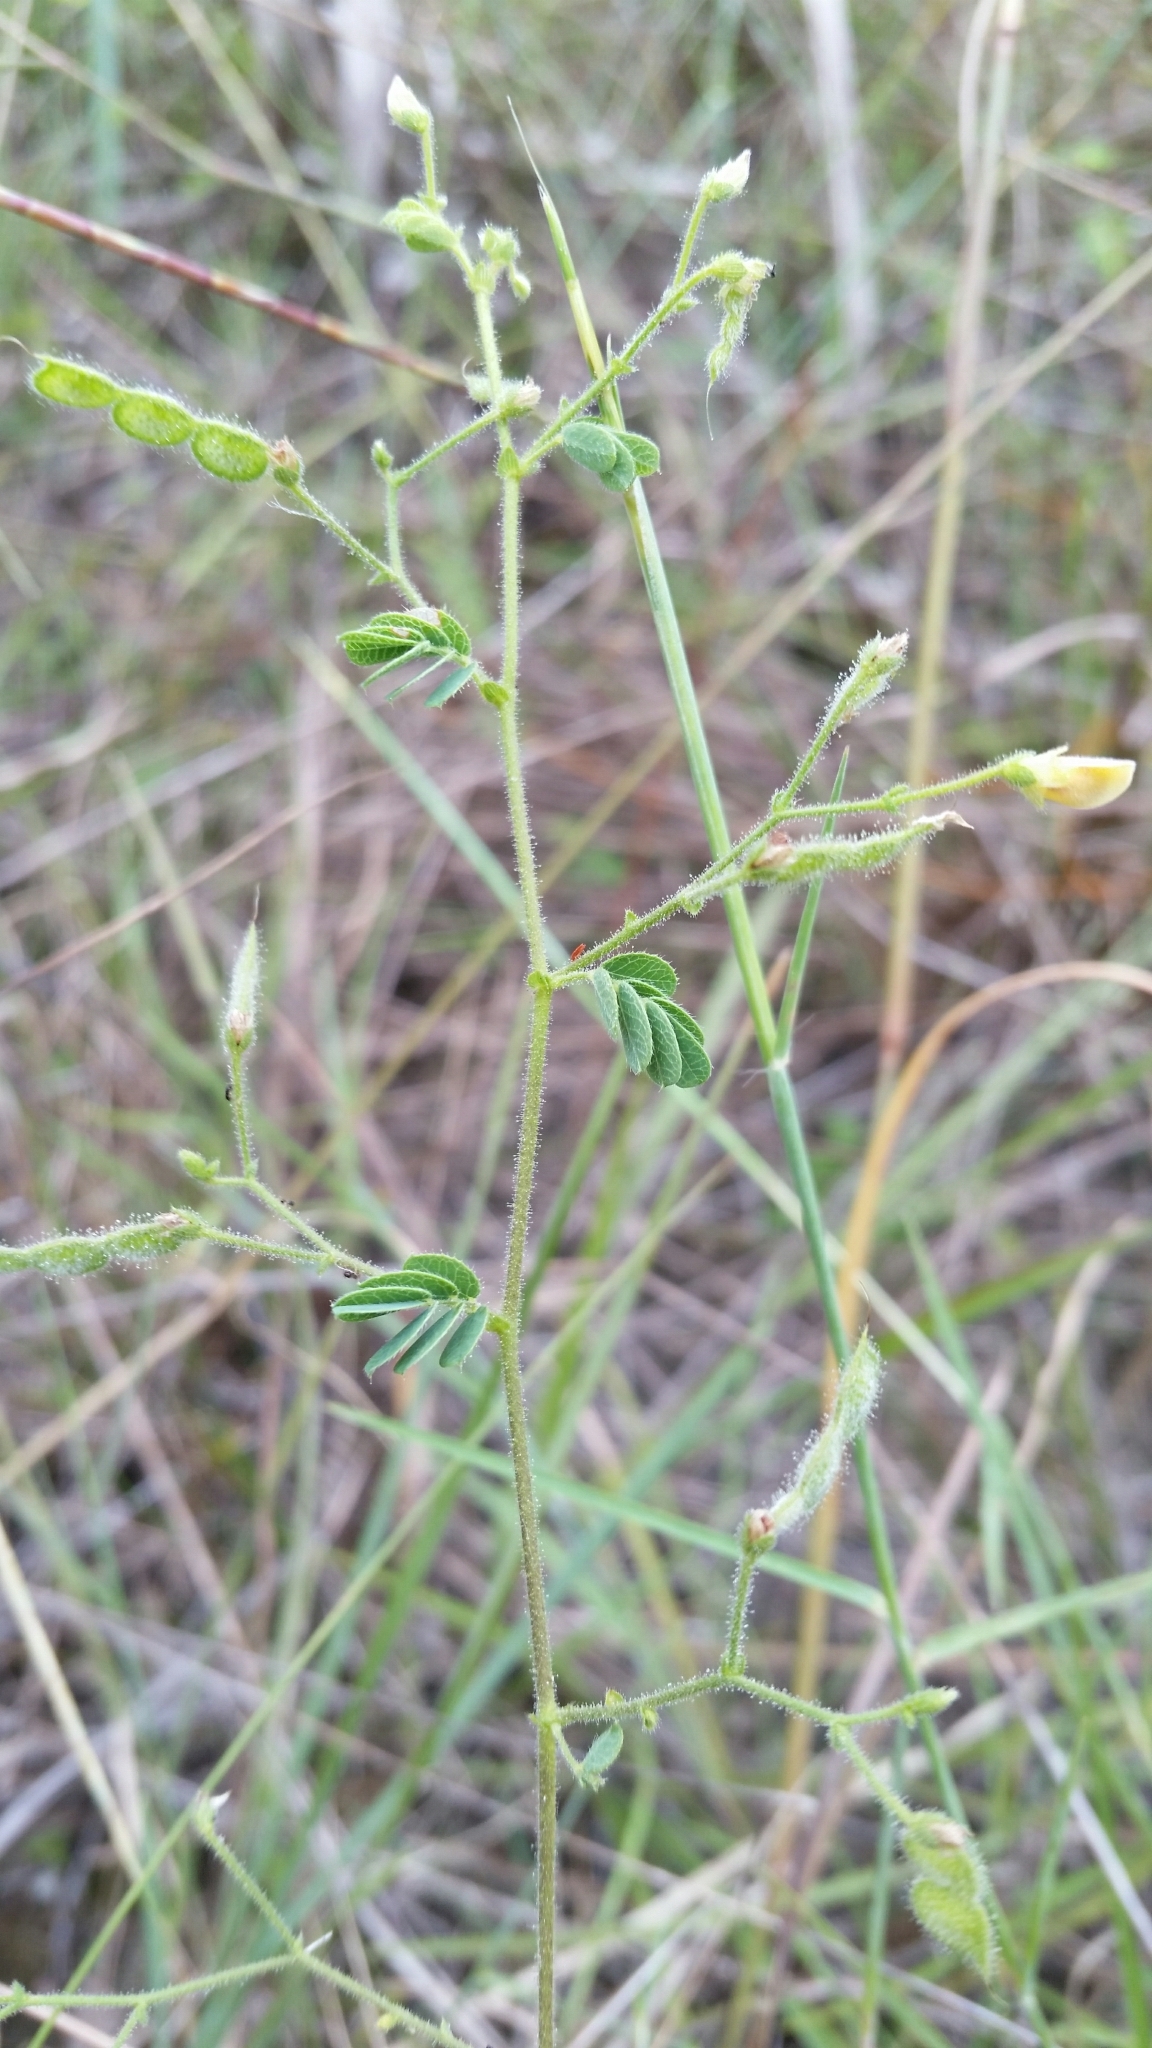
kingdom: Plantae
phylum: Tracheophyta
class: Magnoliopsida
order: Fabales
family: Fabaceae
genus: Ctenodon
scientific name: Ctenodon viscidulus
